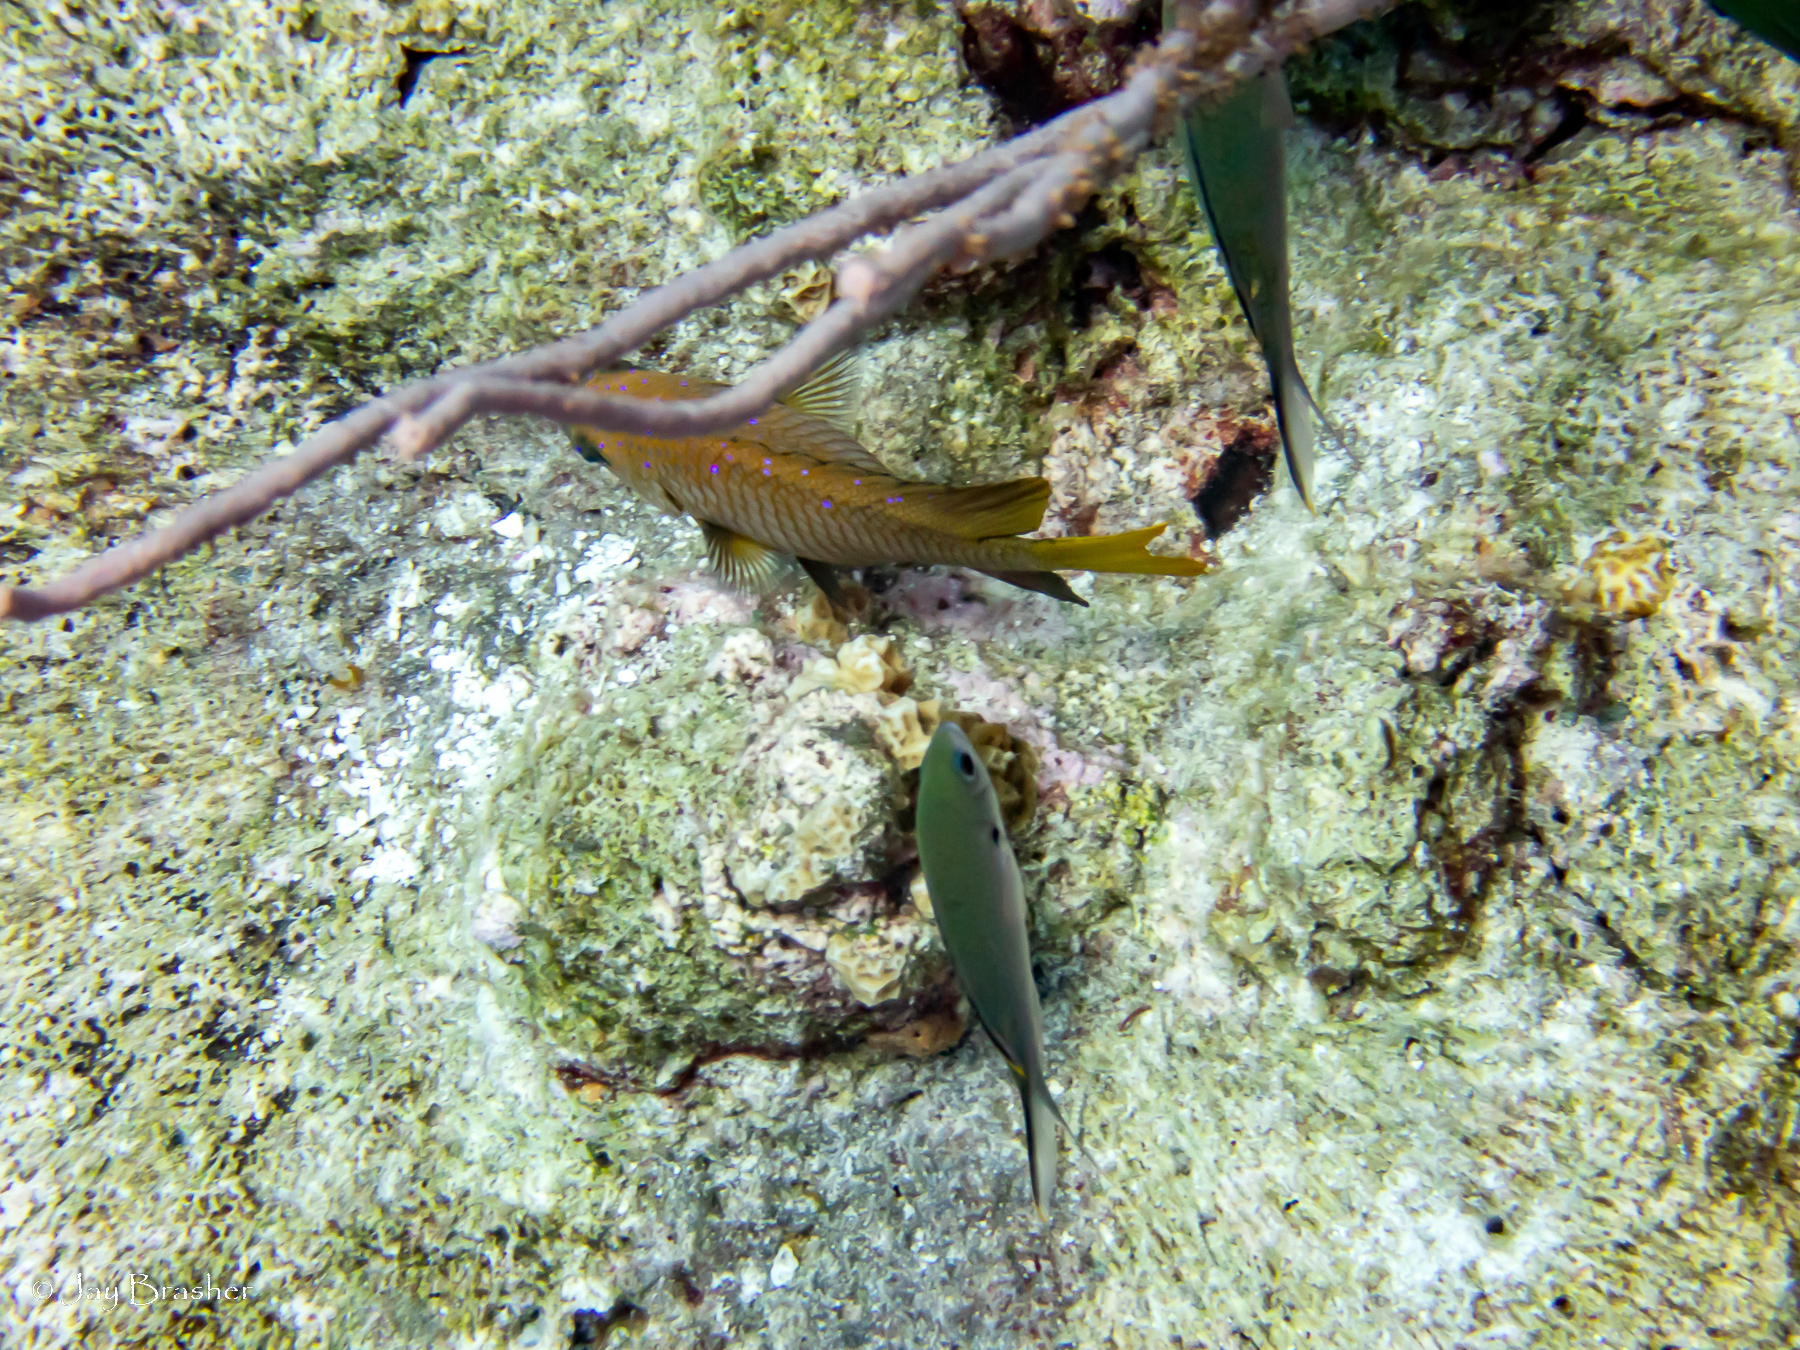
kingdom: Animalia
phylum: Chordata
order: Perciformes
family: Pomacentridae
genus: Chromis
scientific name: Chromis multilineata
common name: Brown chromis
